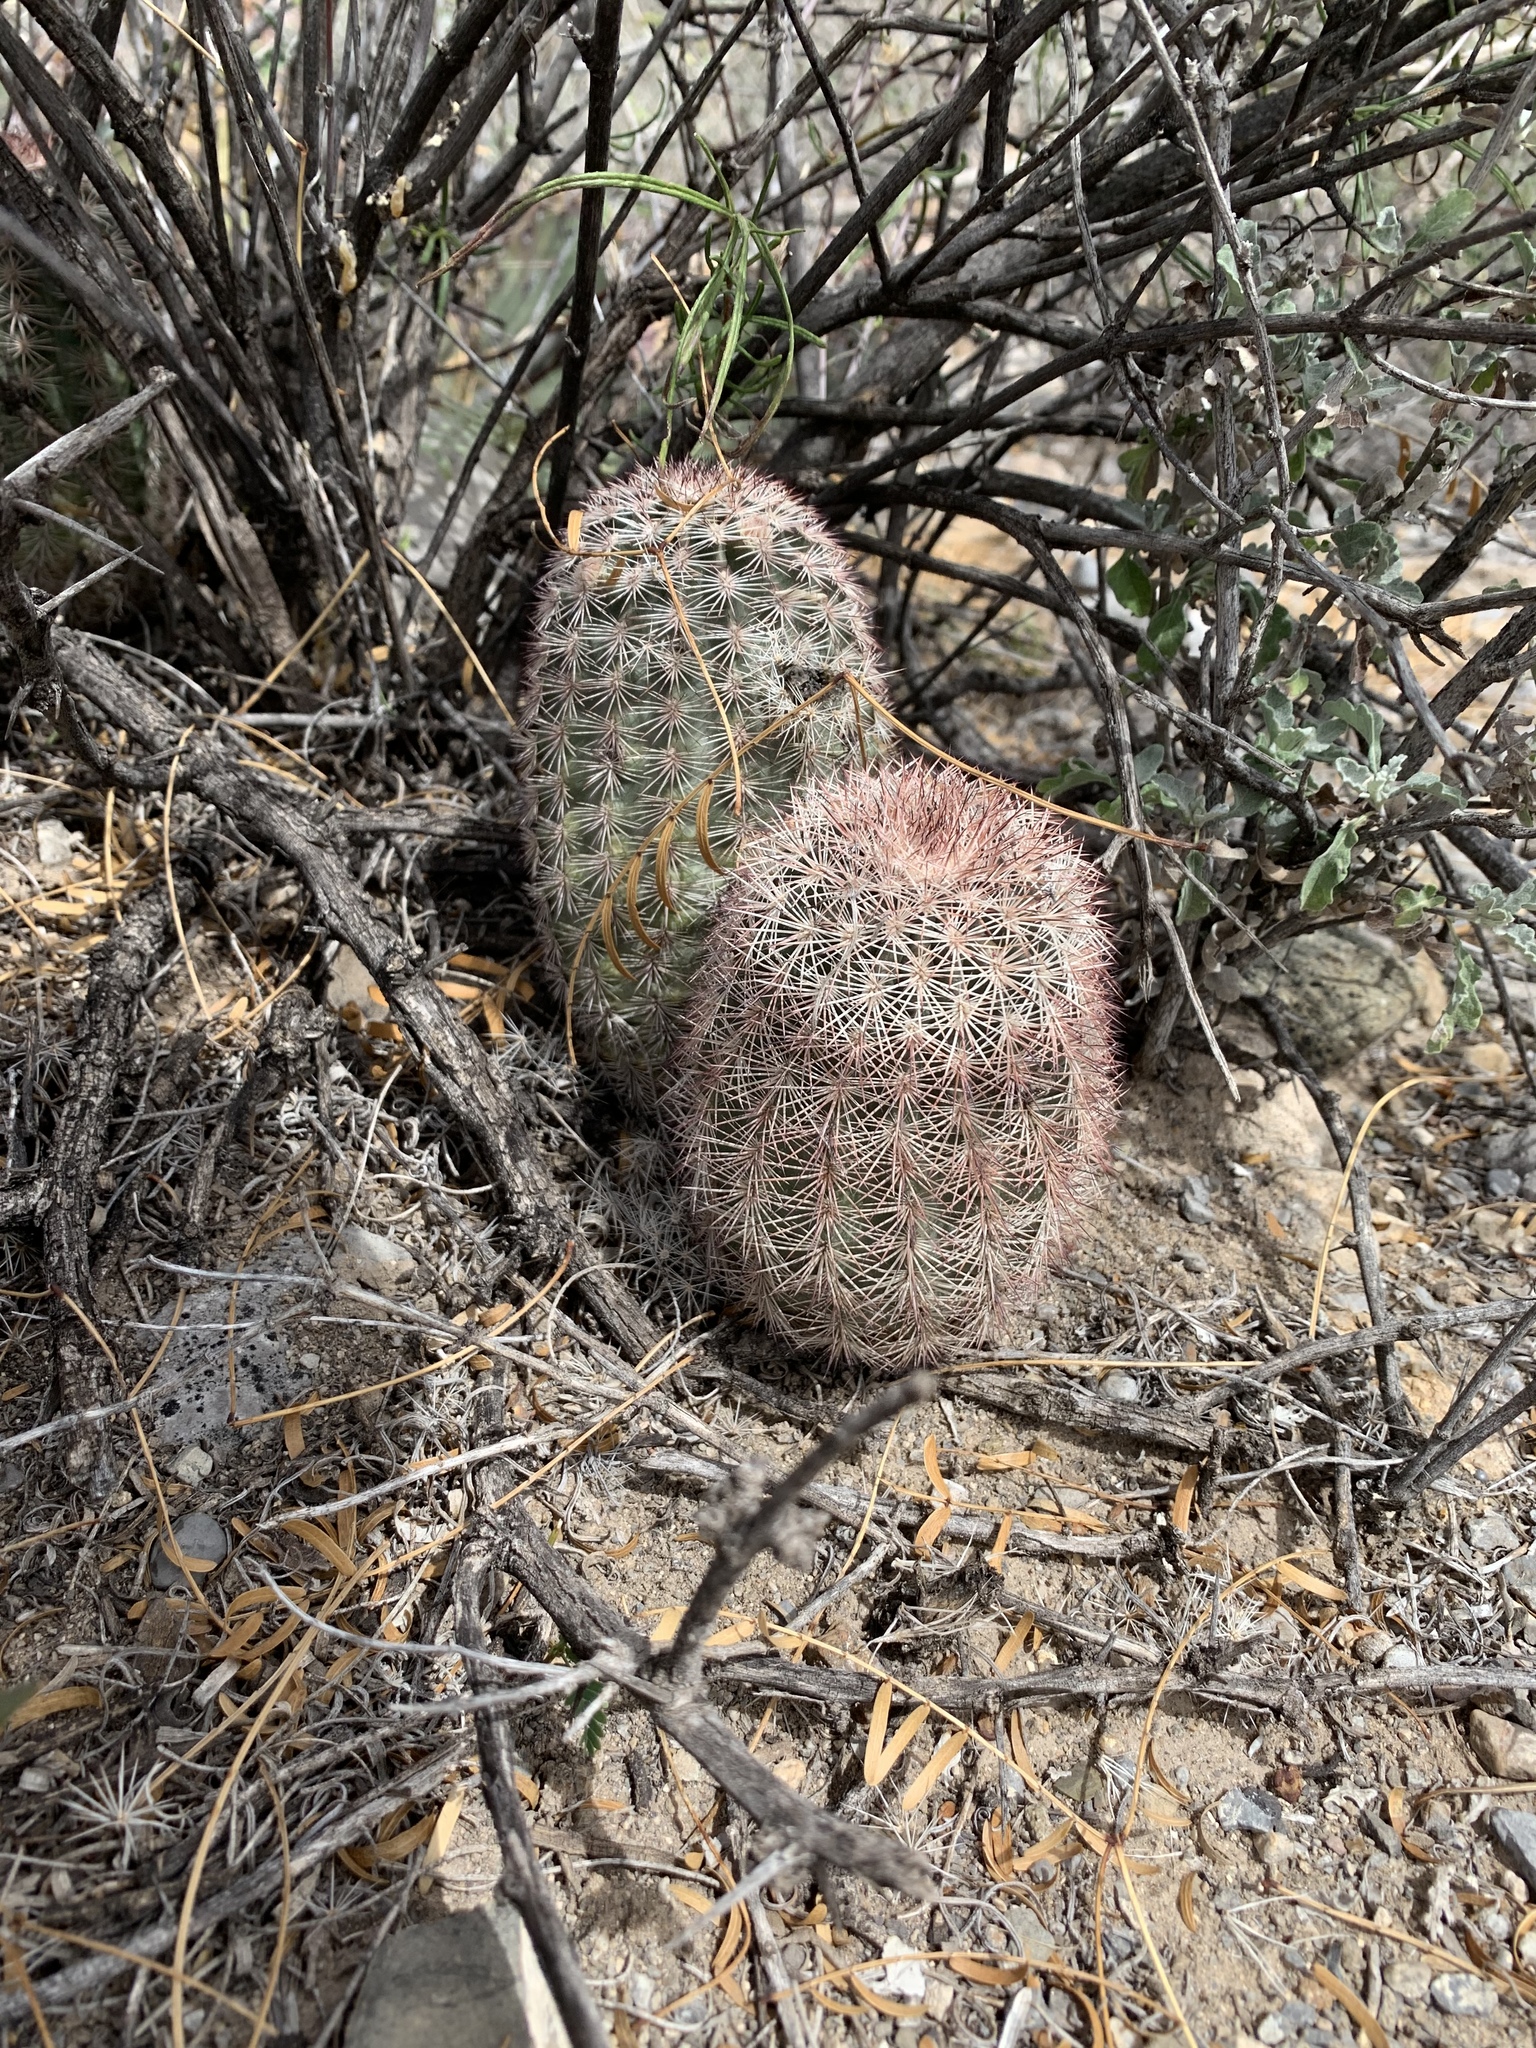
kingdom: Plantae
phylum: Tracheophyta
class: Magnoliopsida
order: Caryophyllales
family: Cactaceae
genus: Echinocereus
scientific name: Echinocereus dasyacanthus
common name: Spiny hedgehog cactus
